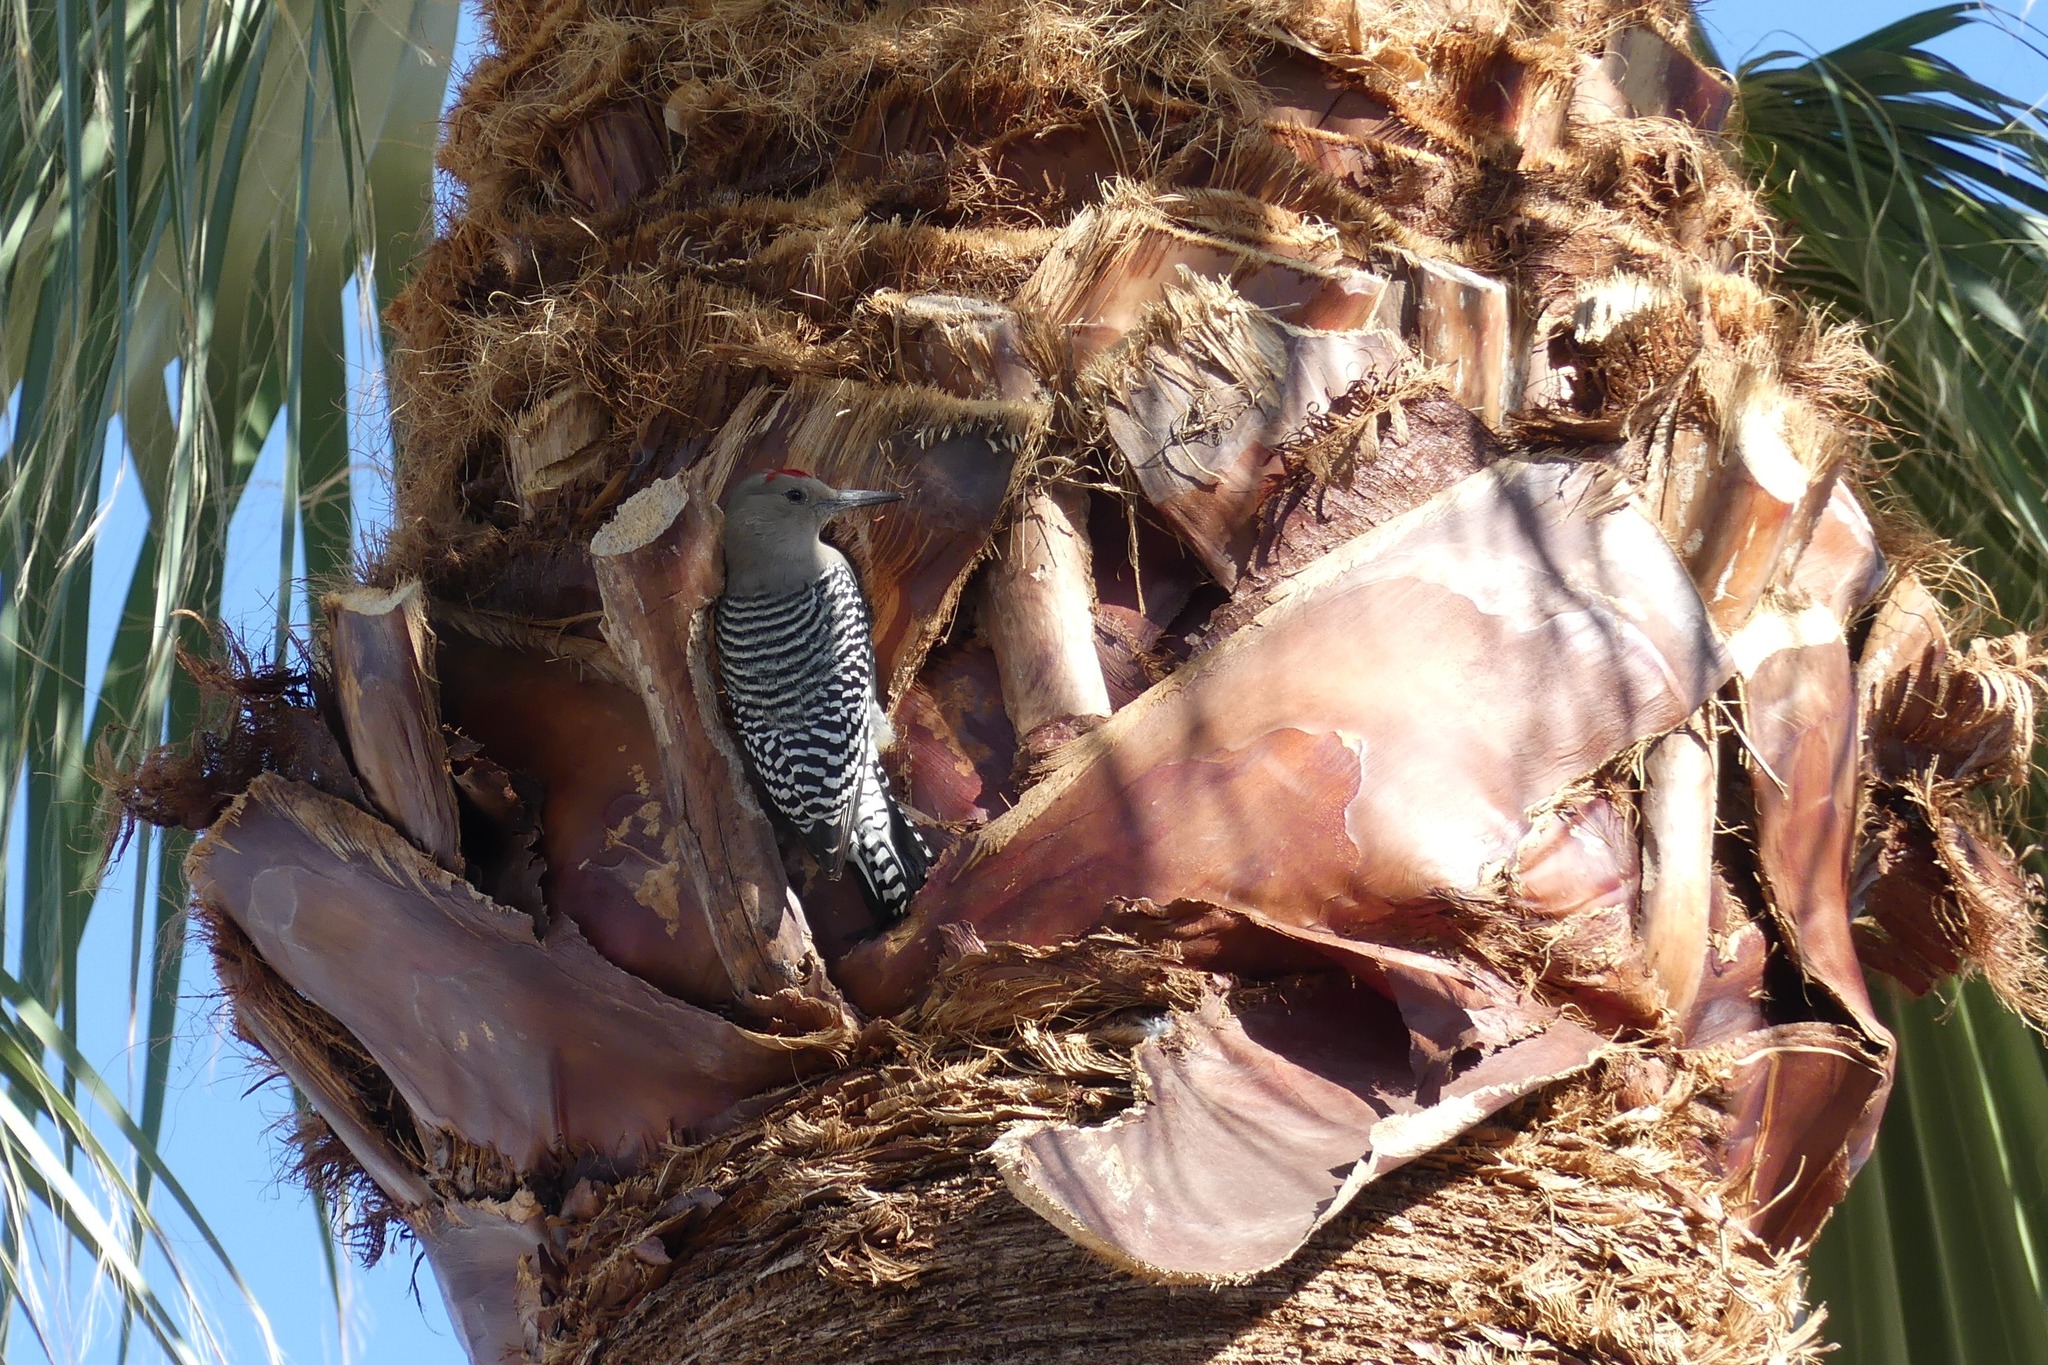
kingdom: Animalia
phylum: Chordata
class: Aves
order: Piciformes
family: Picidae
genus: Melanerpes
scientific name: Melanerpes uropygialis
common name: Gila woodpecker
